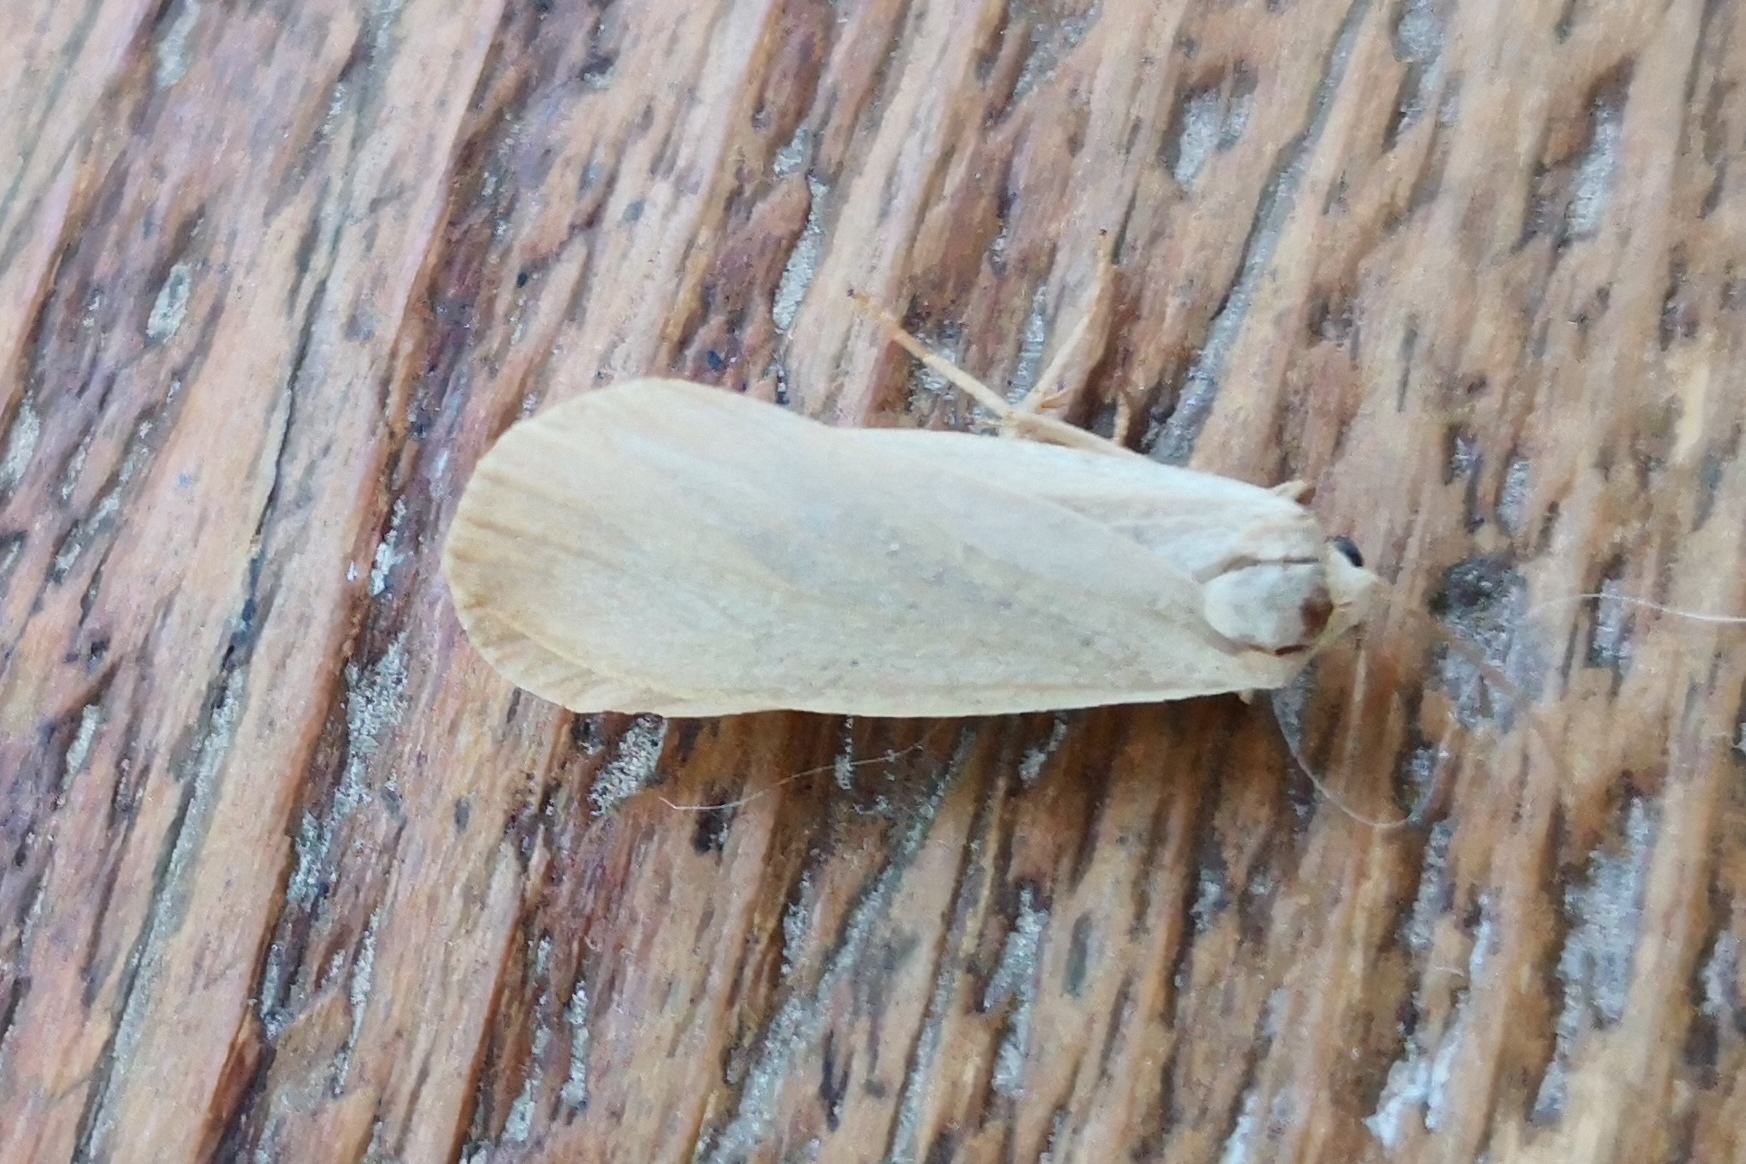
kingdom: Animalia
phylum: Arthropoda
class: Insecta
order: Lepidoptera
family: Erebidae
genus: Katha
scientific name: Katha depressa
